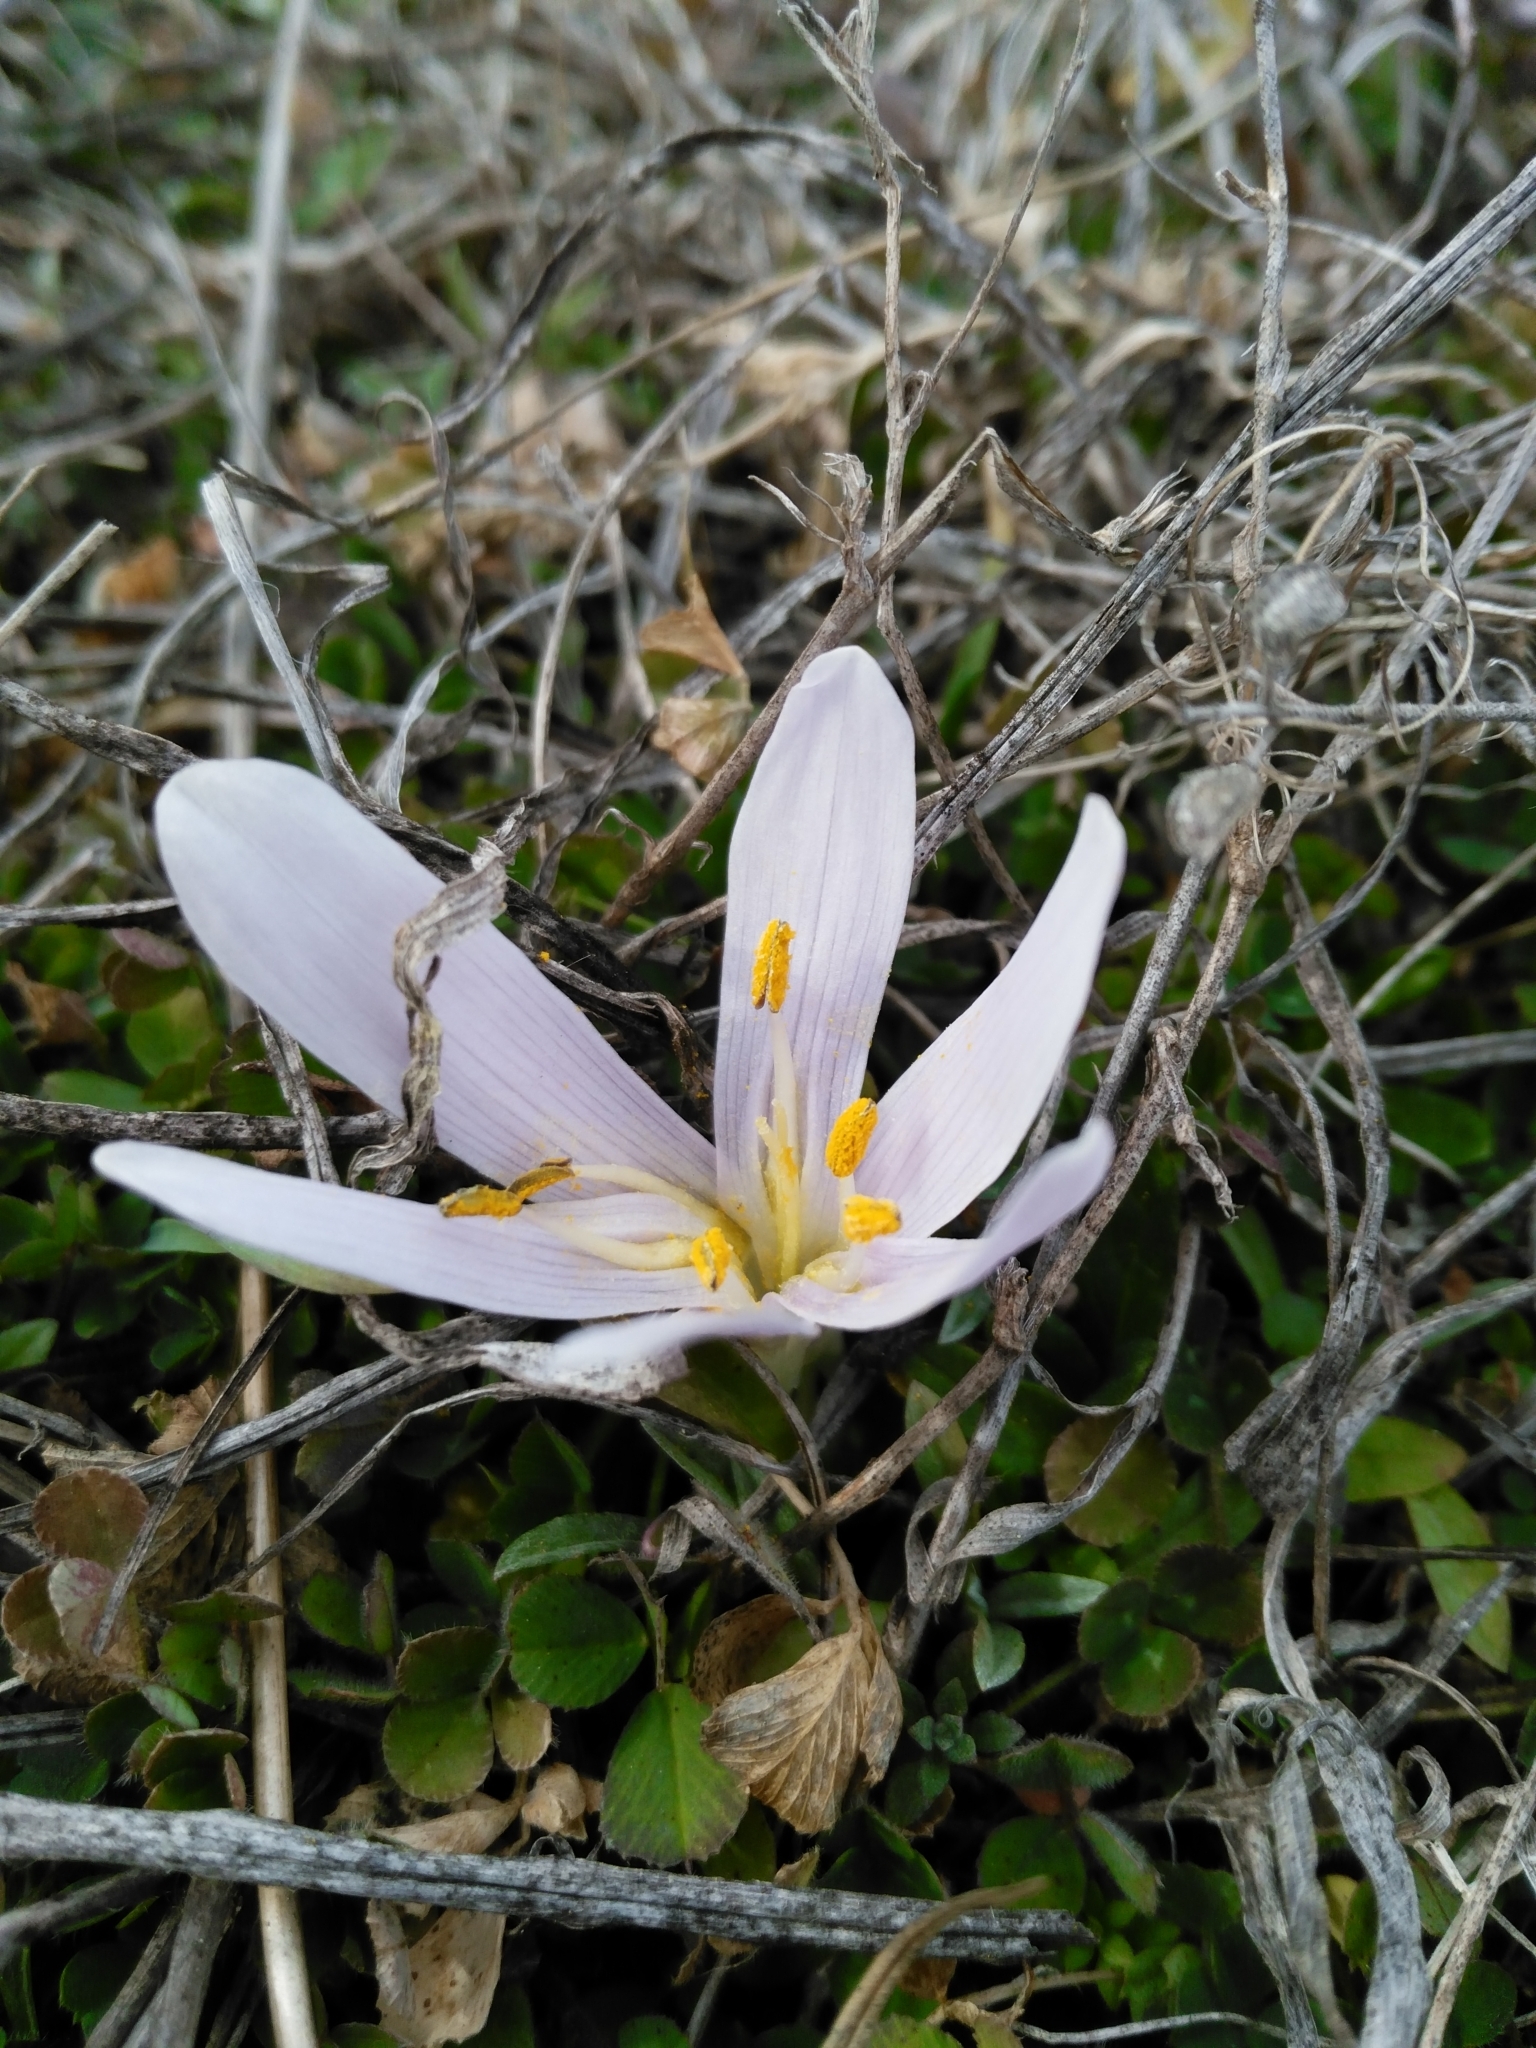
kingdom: Plantae
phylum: Tracheophyta
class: Liliopsida
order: Liliales
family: Colchicaceae
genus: Colchicum
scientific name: Colchicum trigynum
